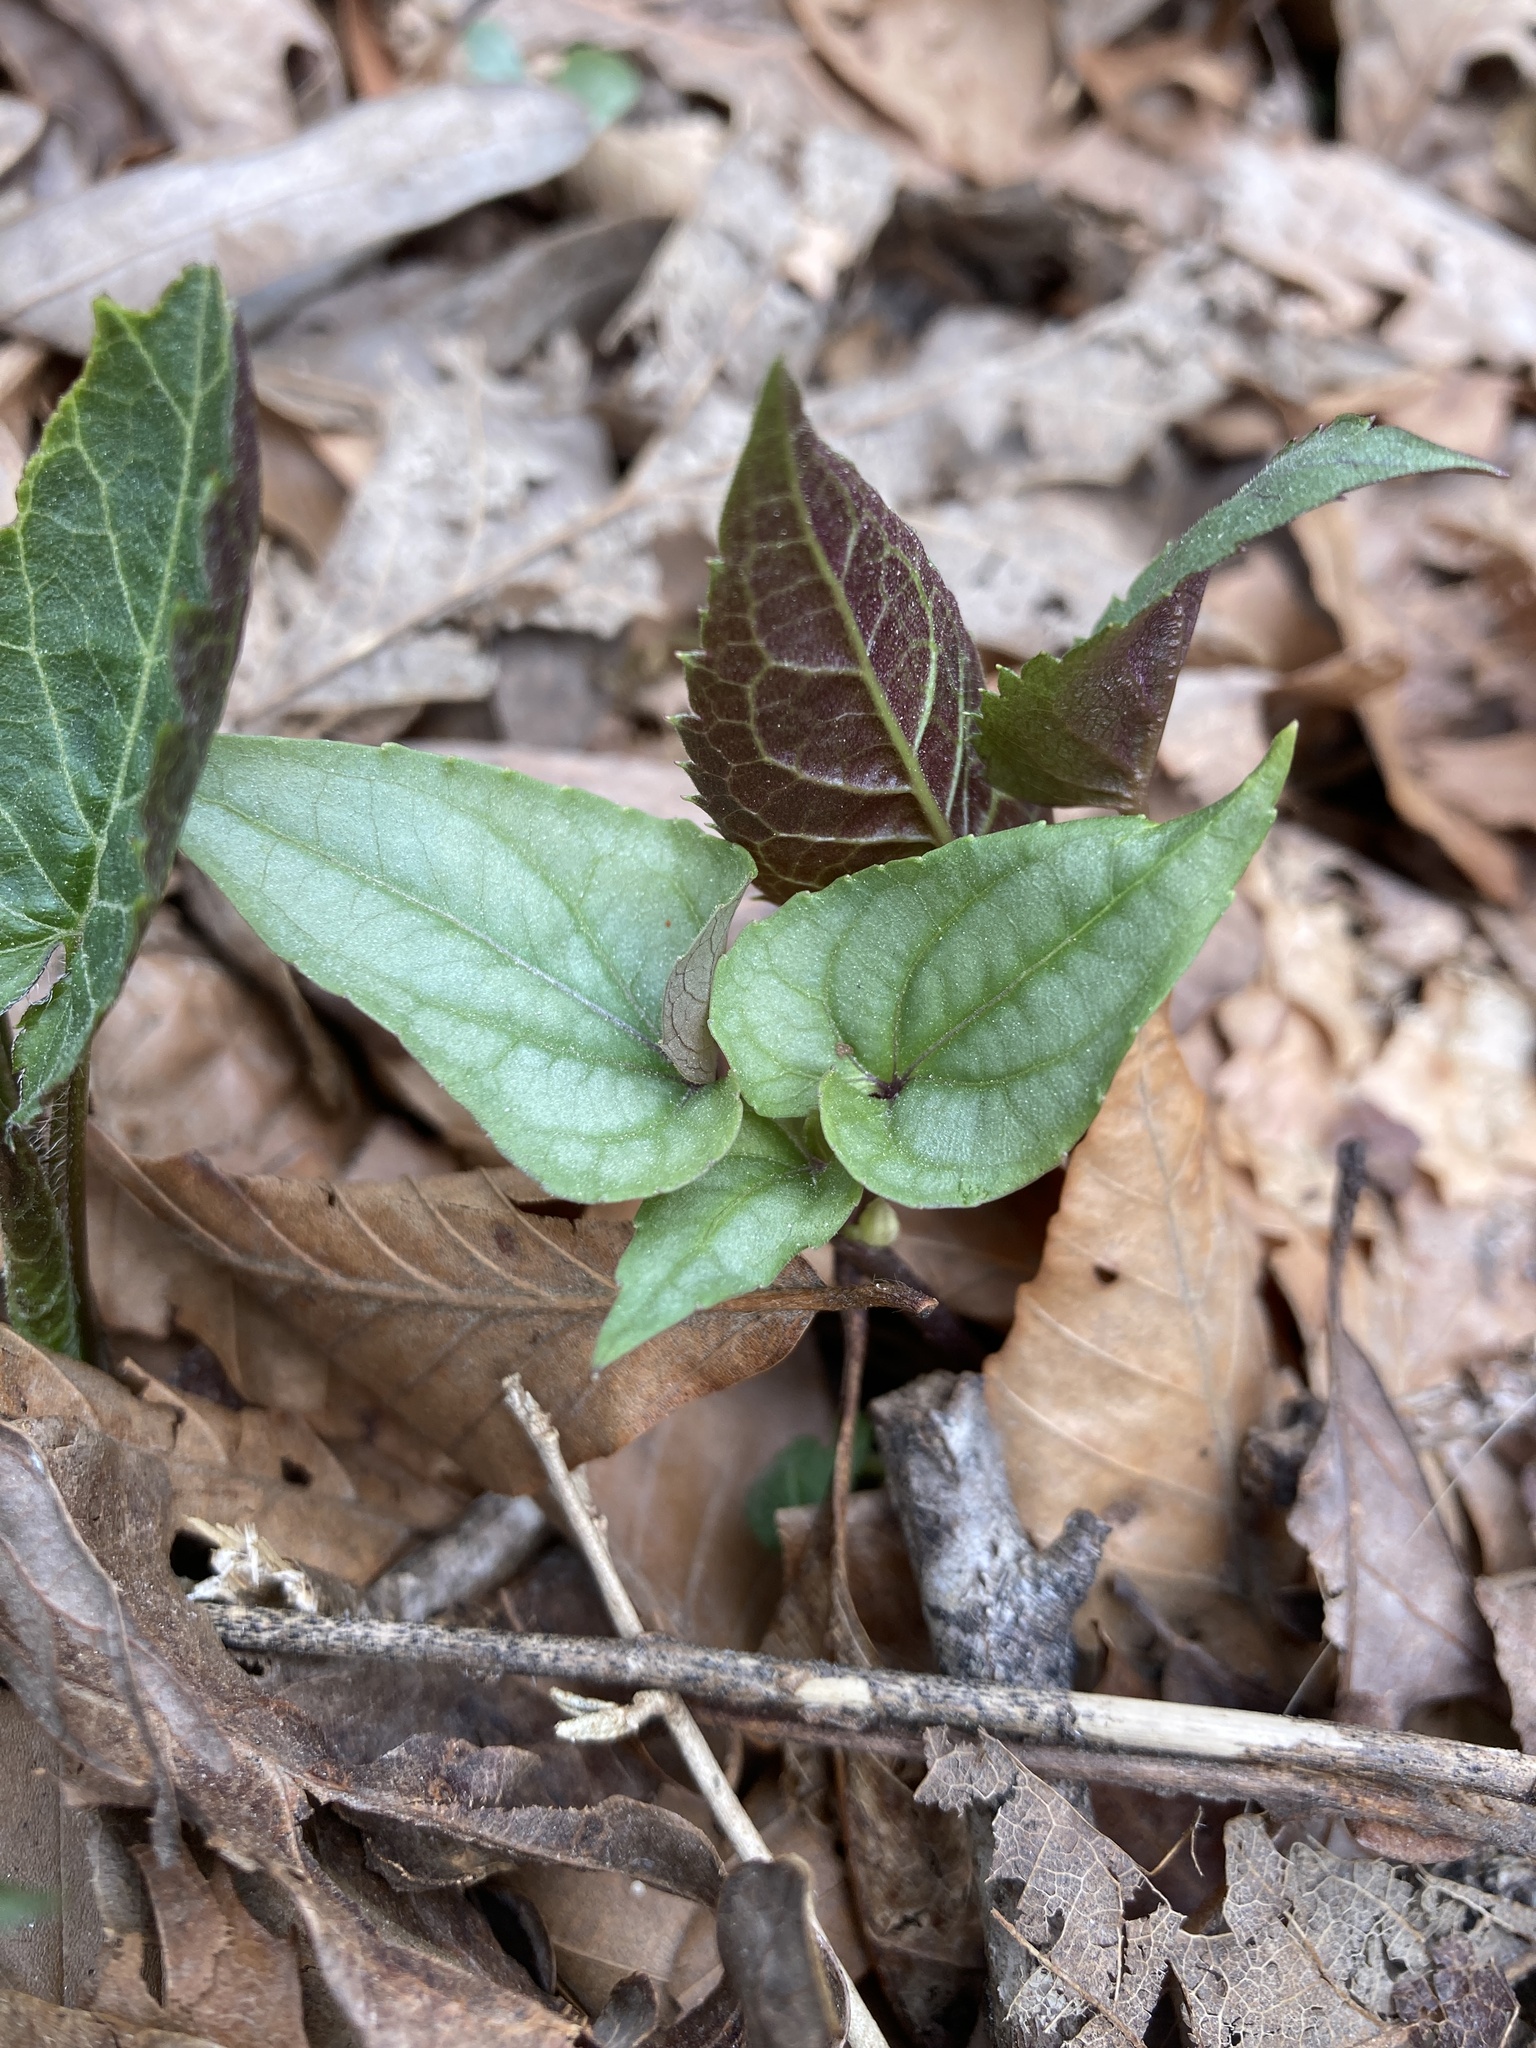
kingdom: Plantae
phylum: Tracheophyta
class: Magnoliopsida
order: Malpighiales
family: Violaceae
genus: Viola
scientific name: Viola hastata
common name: Spear-leaf violet
